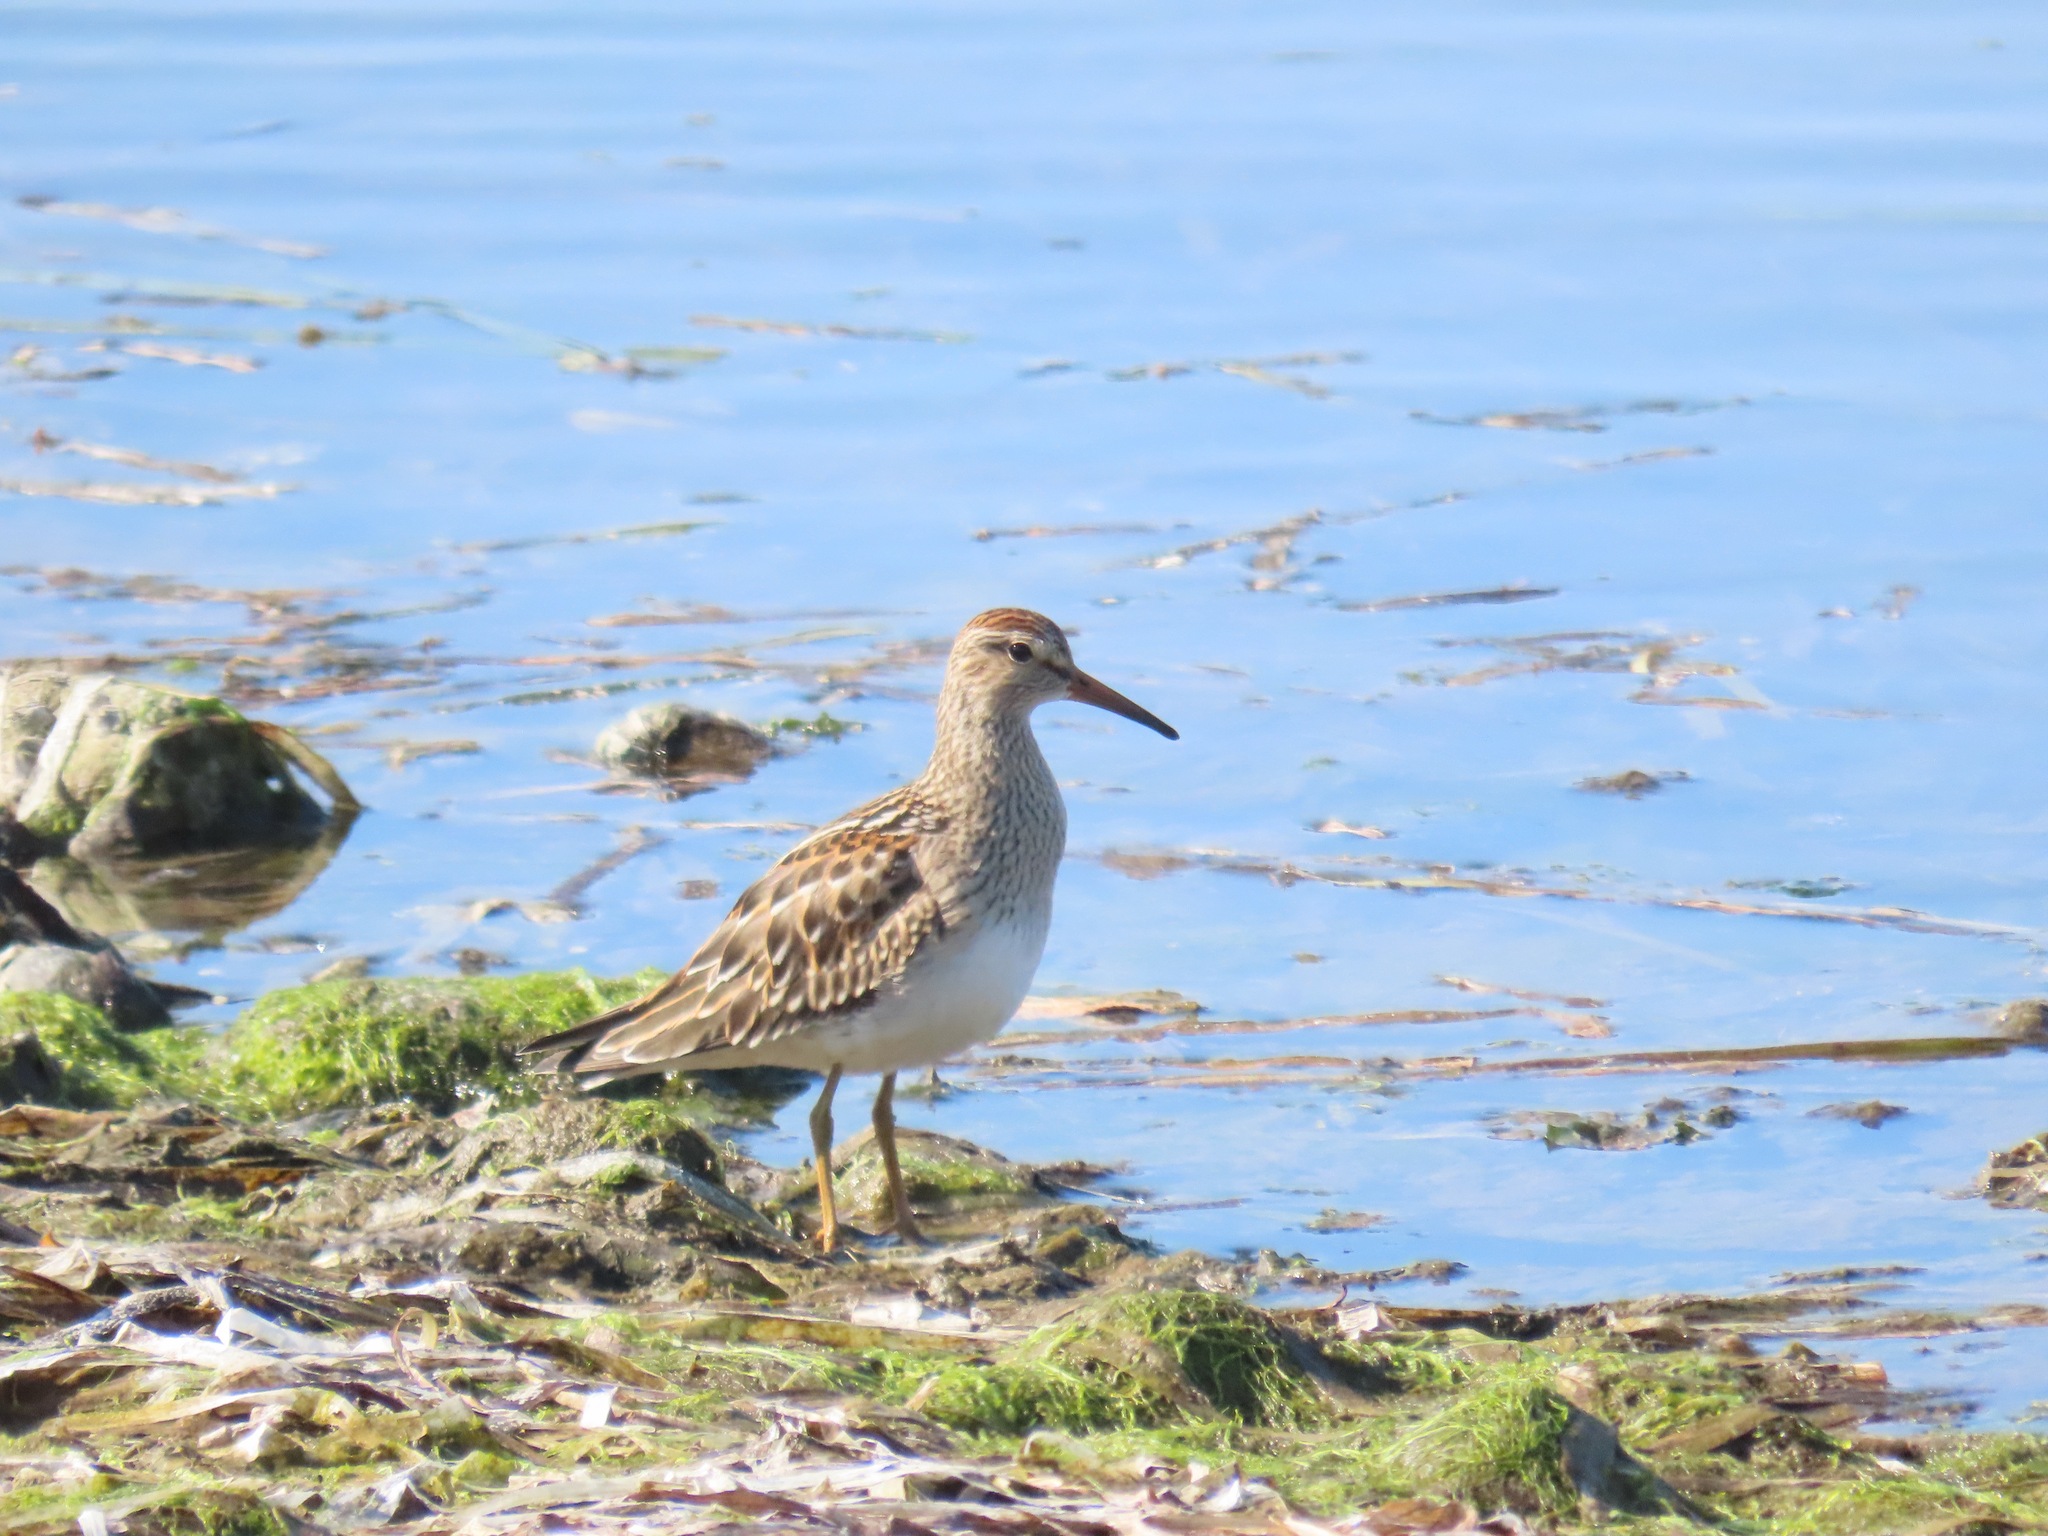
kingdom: Animalia
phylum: Chordata
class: Aves
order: Charadriiformes
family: Scolopacidae
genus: Calidris
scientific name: Calidris melanotos
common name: Pectoral sandpiper
